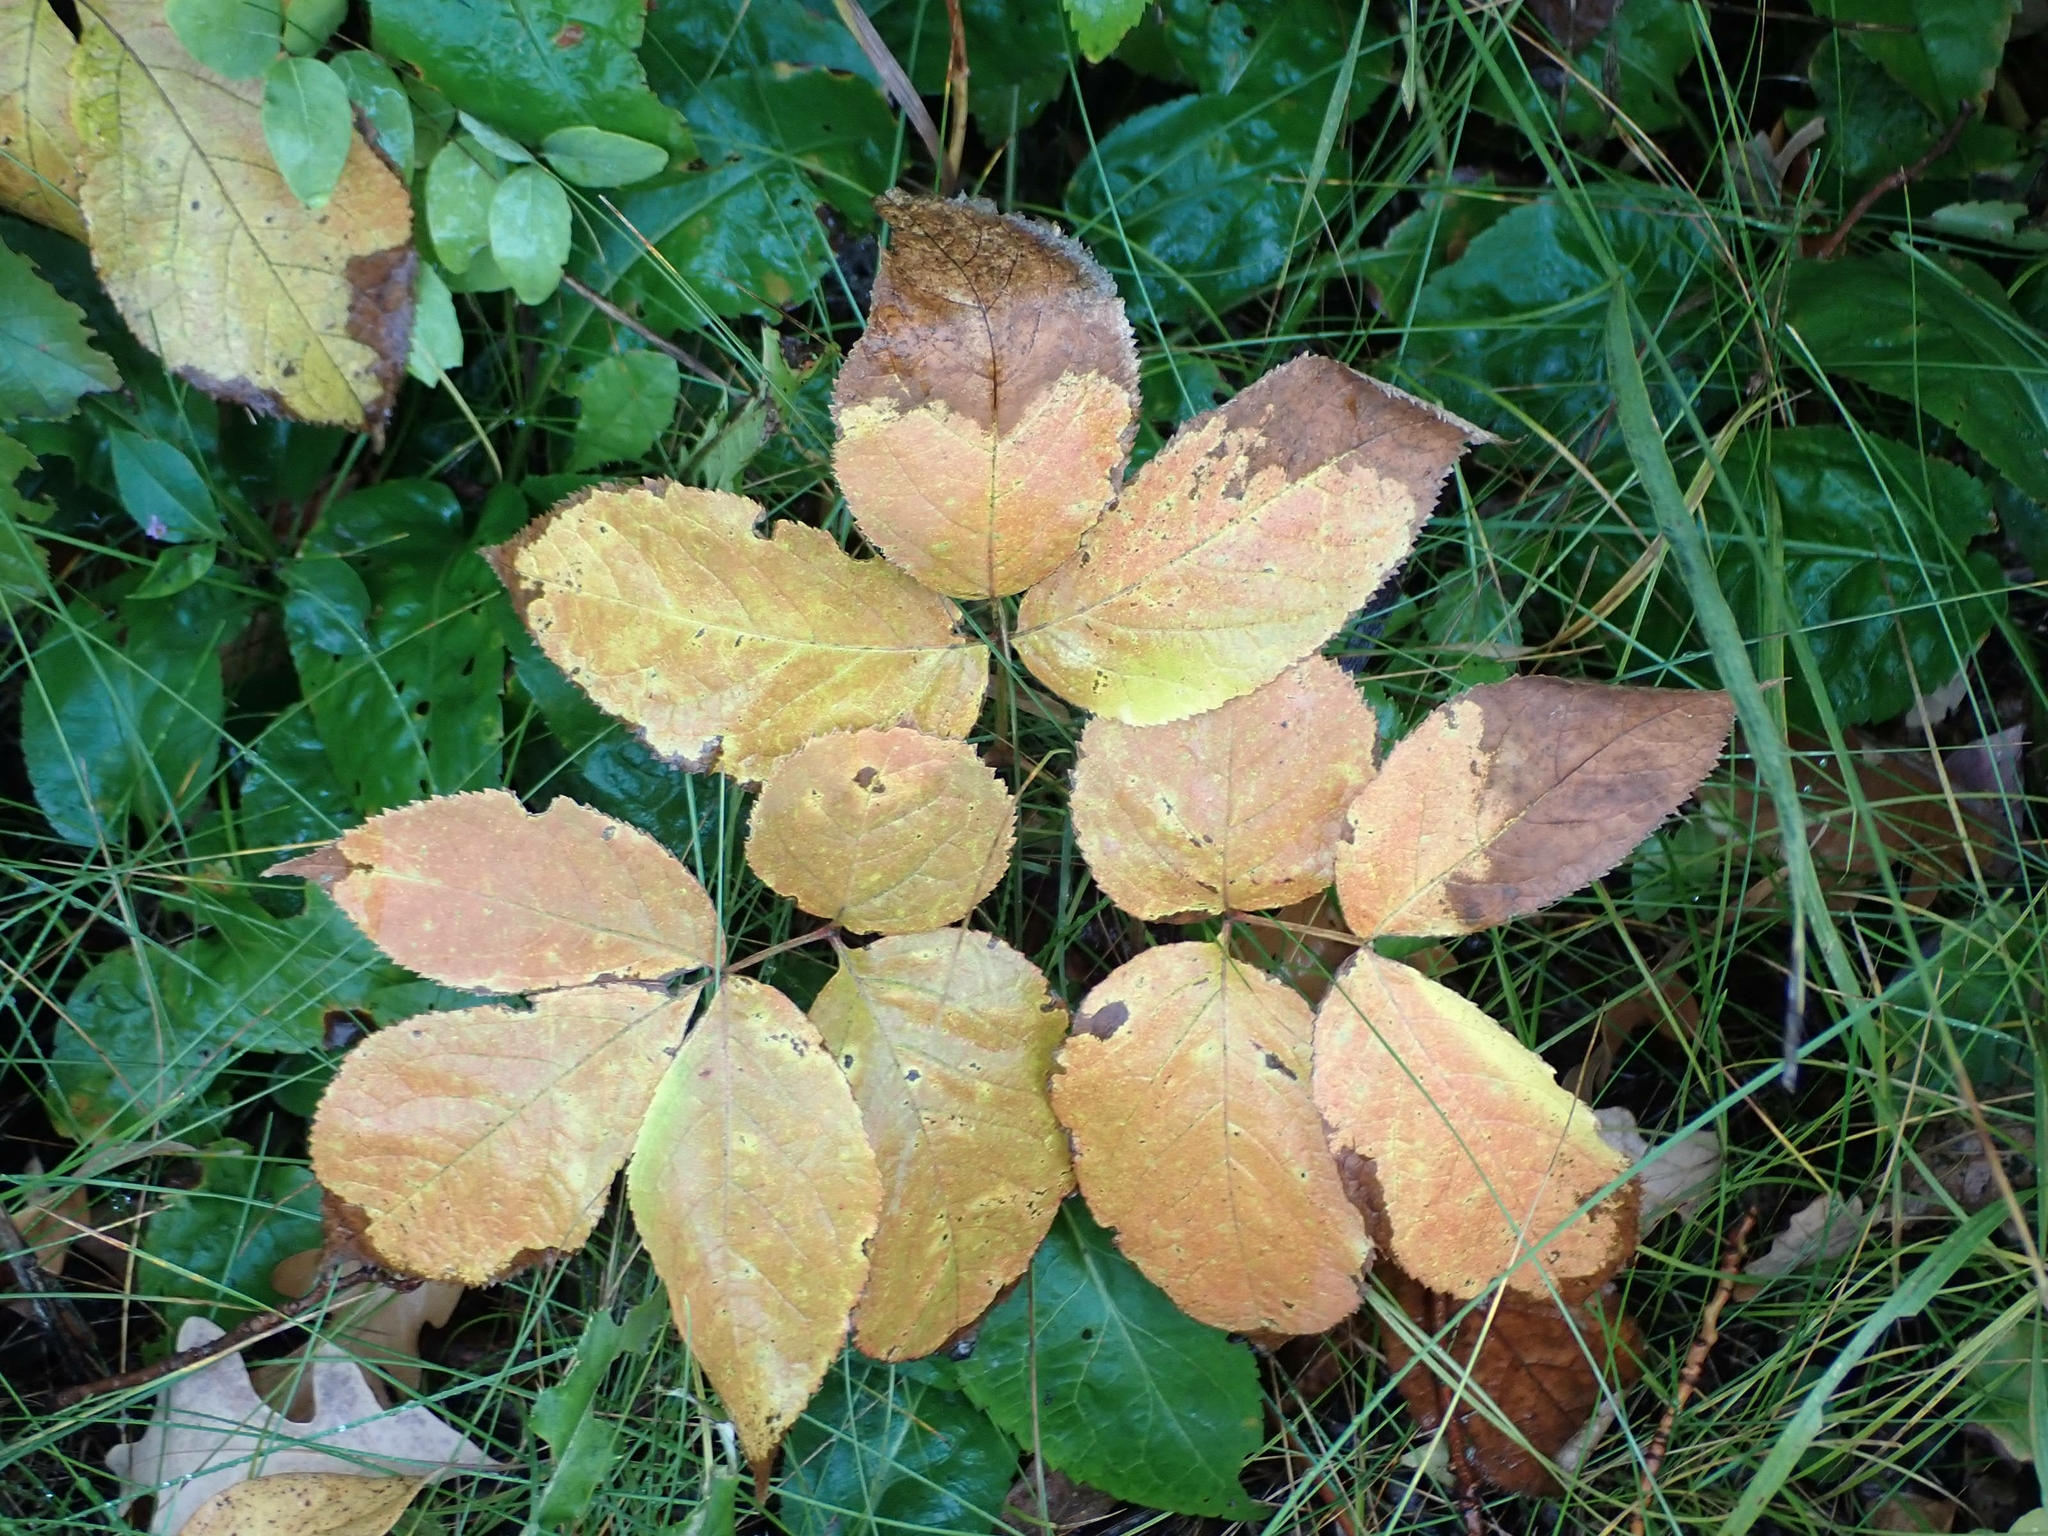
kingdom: Plantae
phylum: Tracheophyta
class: Magnoliopsida
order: Apiales
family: Araliaceae
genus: Aralia
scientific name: Aralia nudicaulis
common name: Wild sarsaparilla
